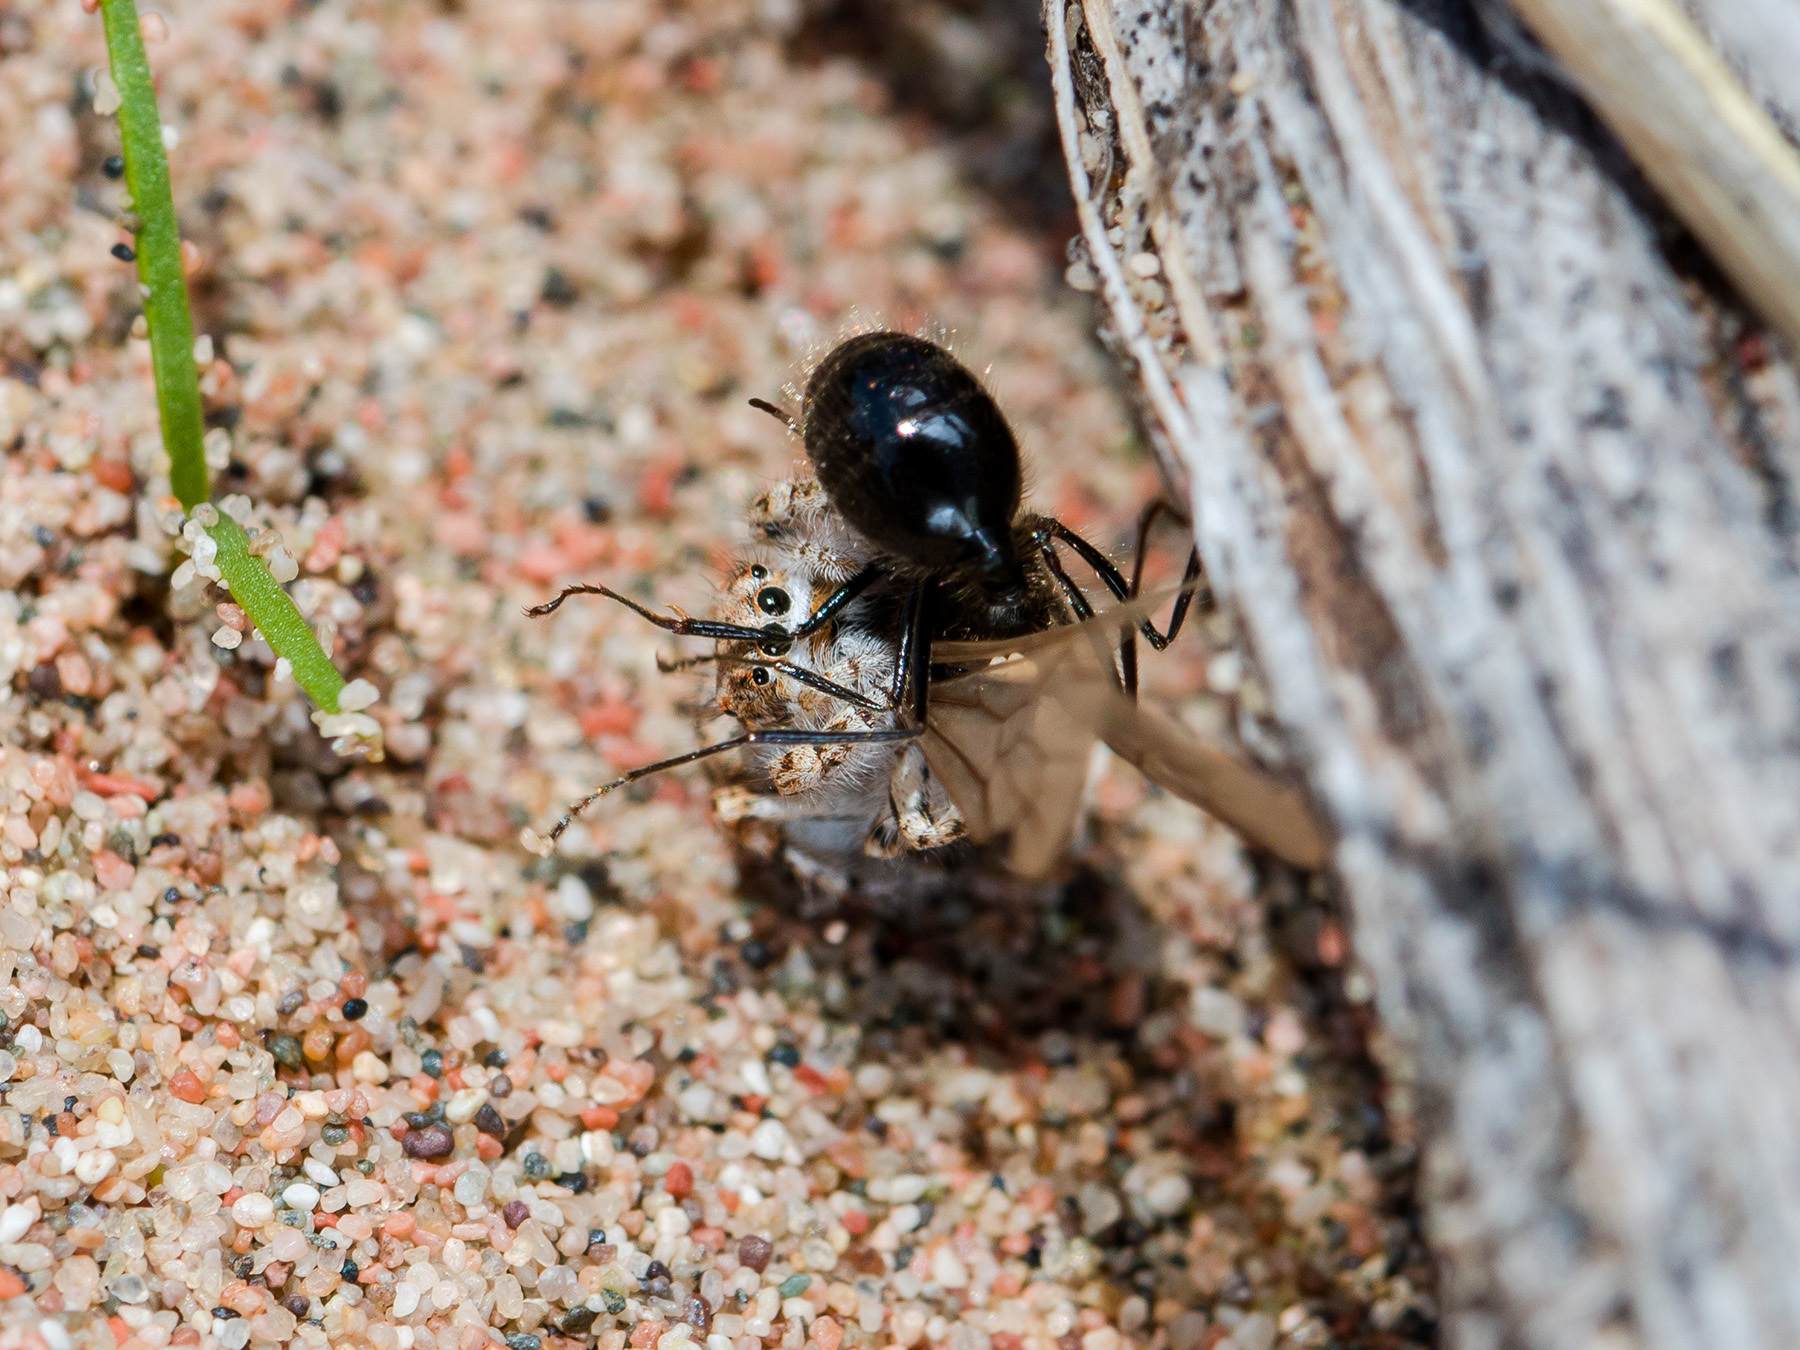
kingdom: Animalia
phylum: Arthropoda
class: Arachnida
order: Araneae
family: Salticidae
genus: Yllenus
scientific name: Yllenus uiguricus
